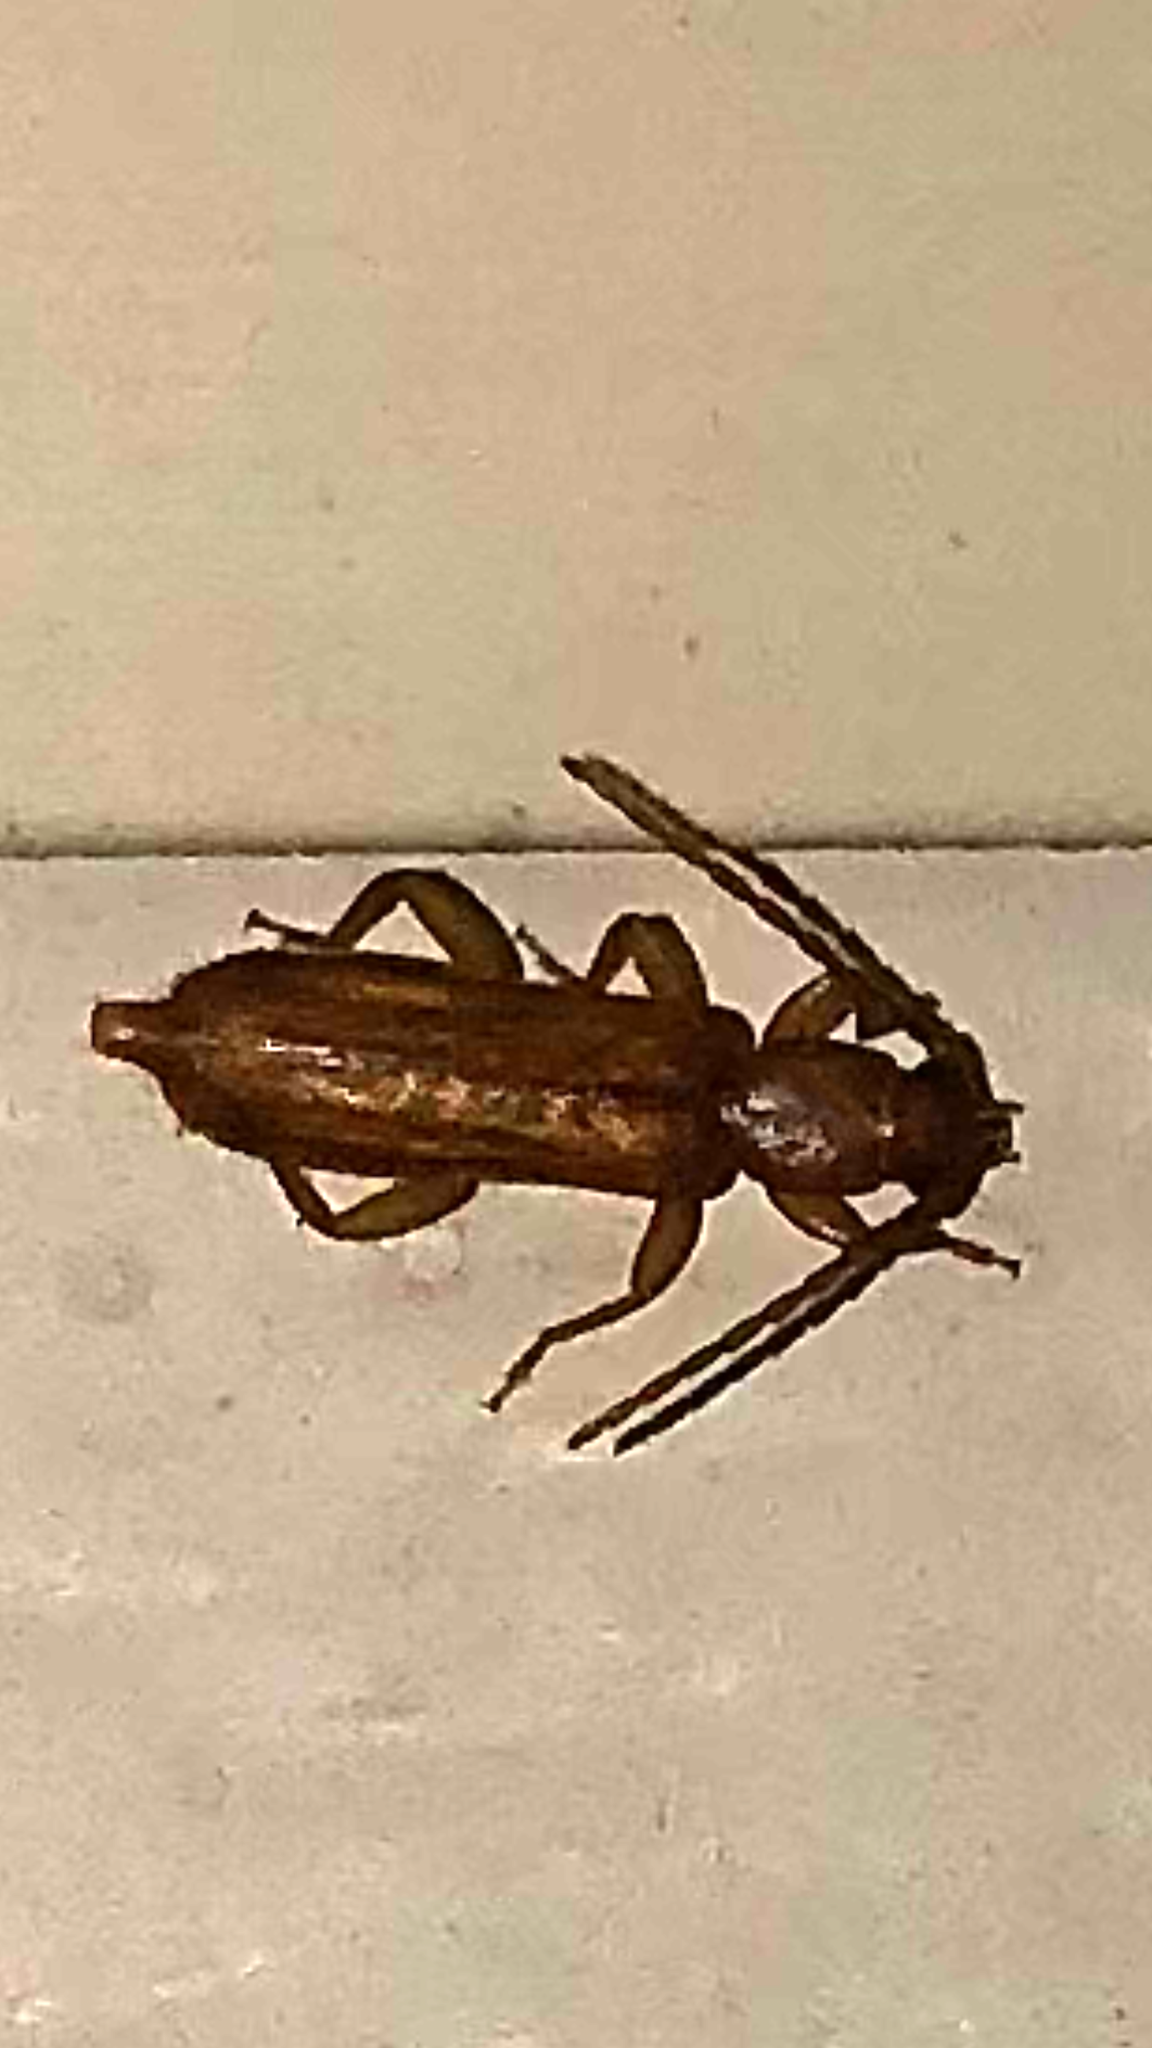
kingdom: Animalia
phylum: Arthropoda
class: Insecta
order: Coleoptera
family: Cerambycidae
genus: Smodicum
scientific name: Smodicum cucujiforme
